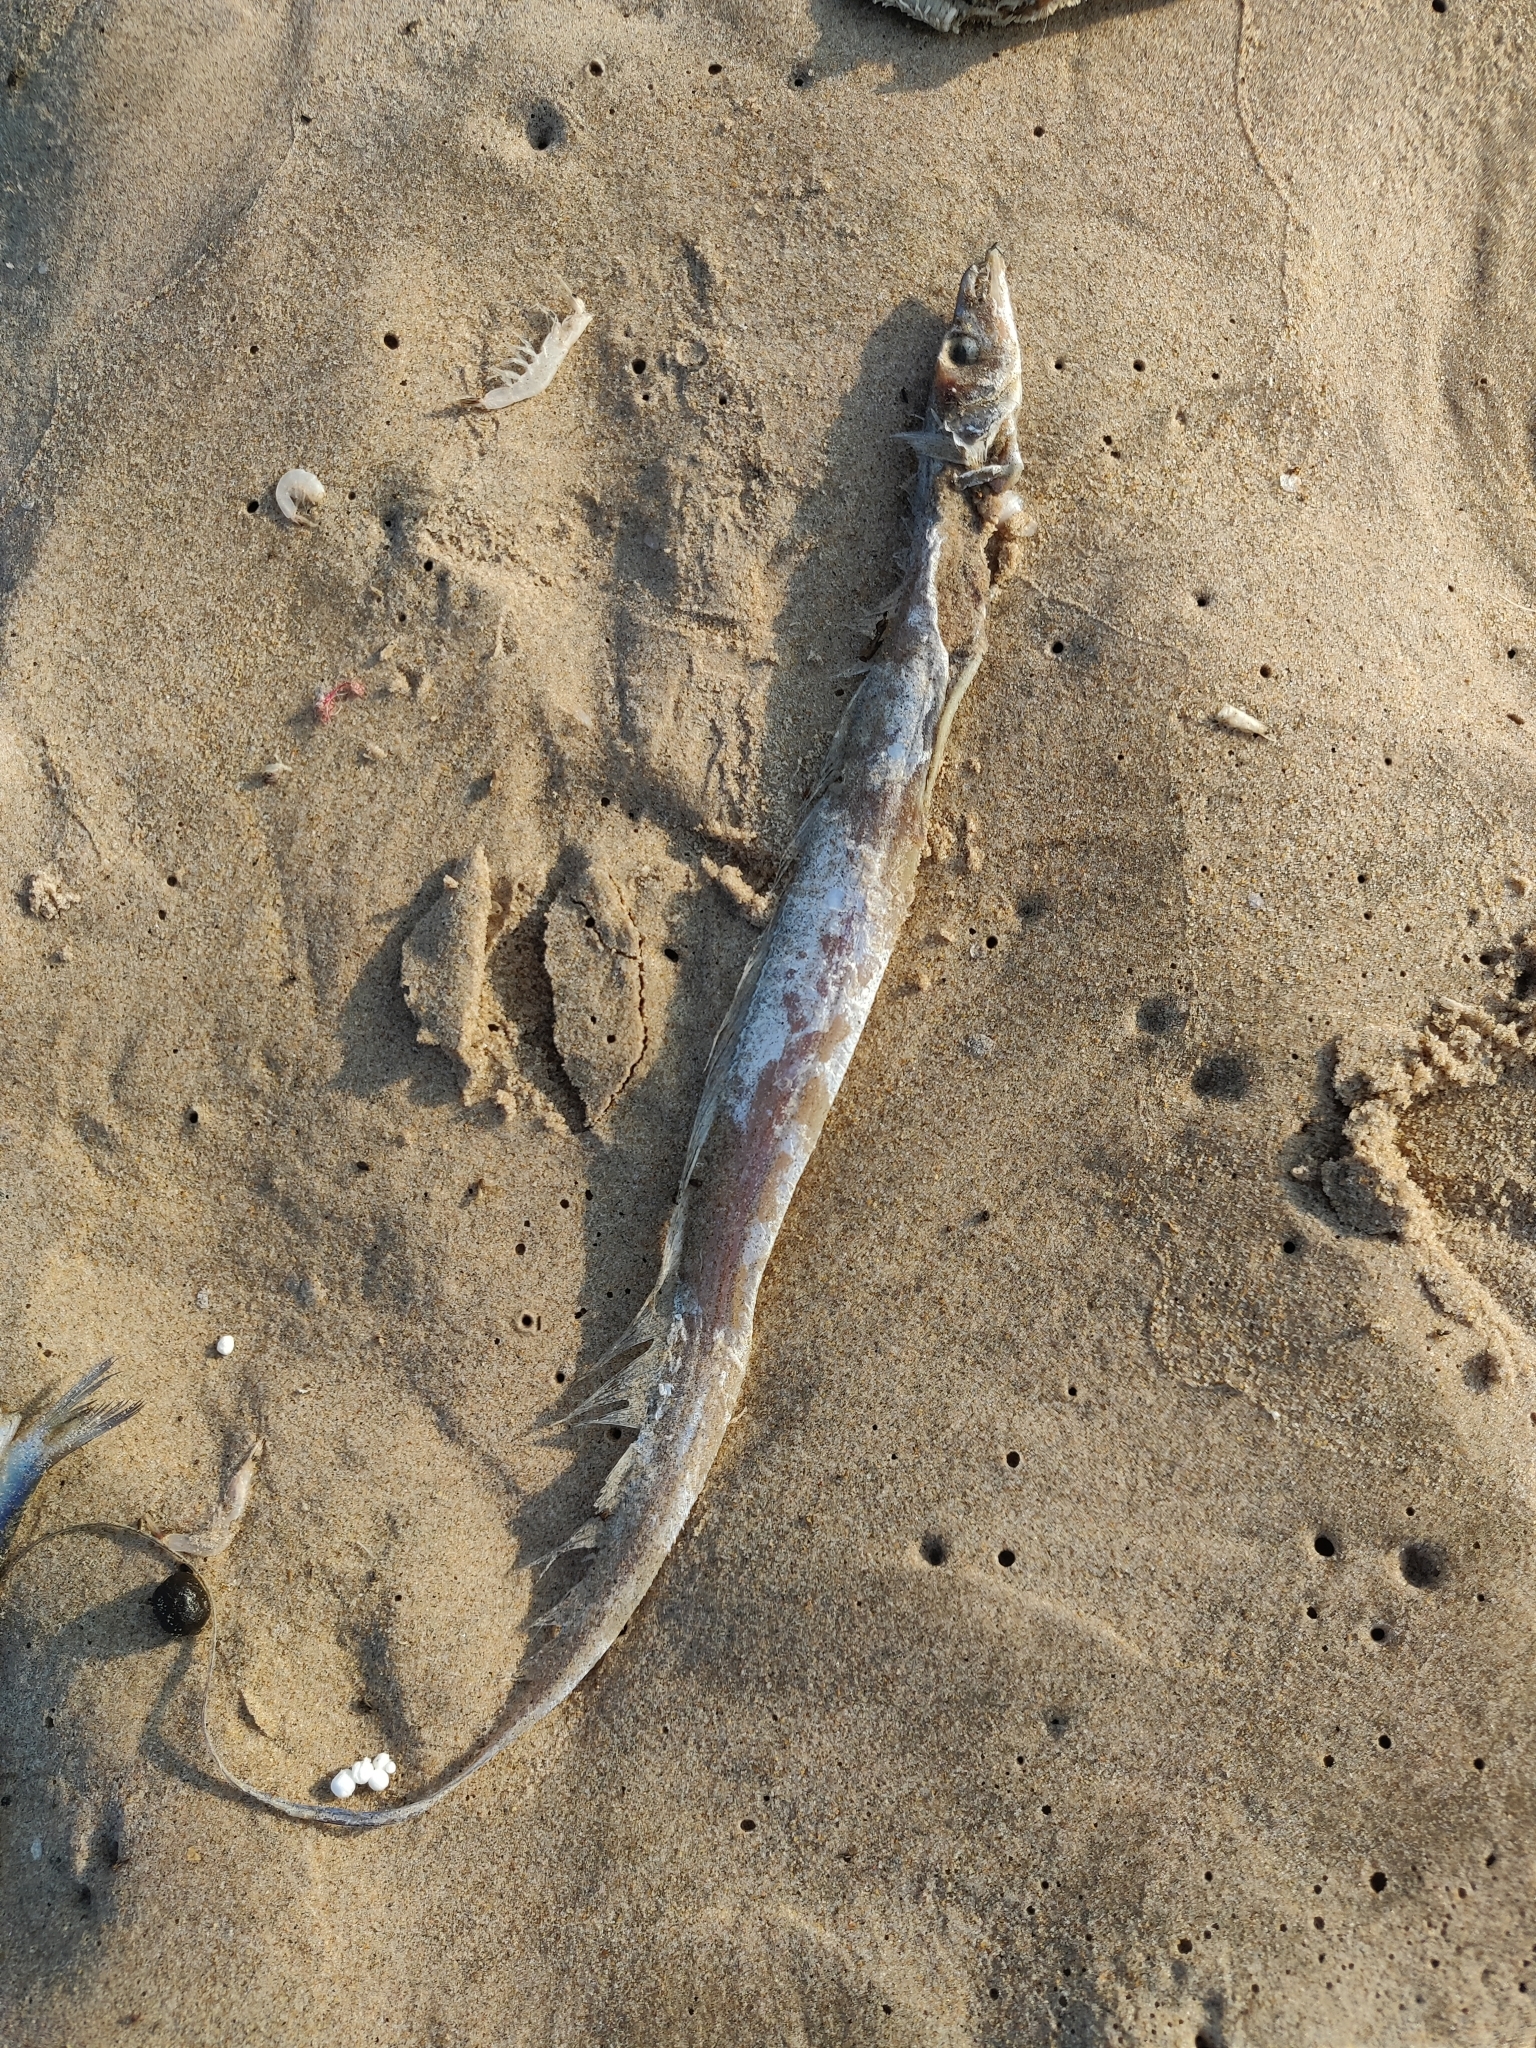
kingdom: Animalia
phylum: Chordata
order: Perciformes
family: Trichiuridae
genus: Lepturacanthus
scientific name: Lepturacanthus savala
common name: Savalai hairtail
